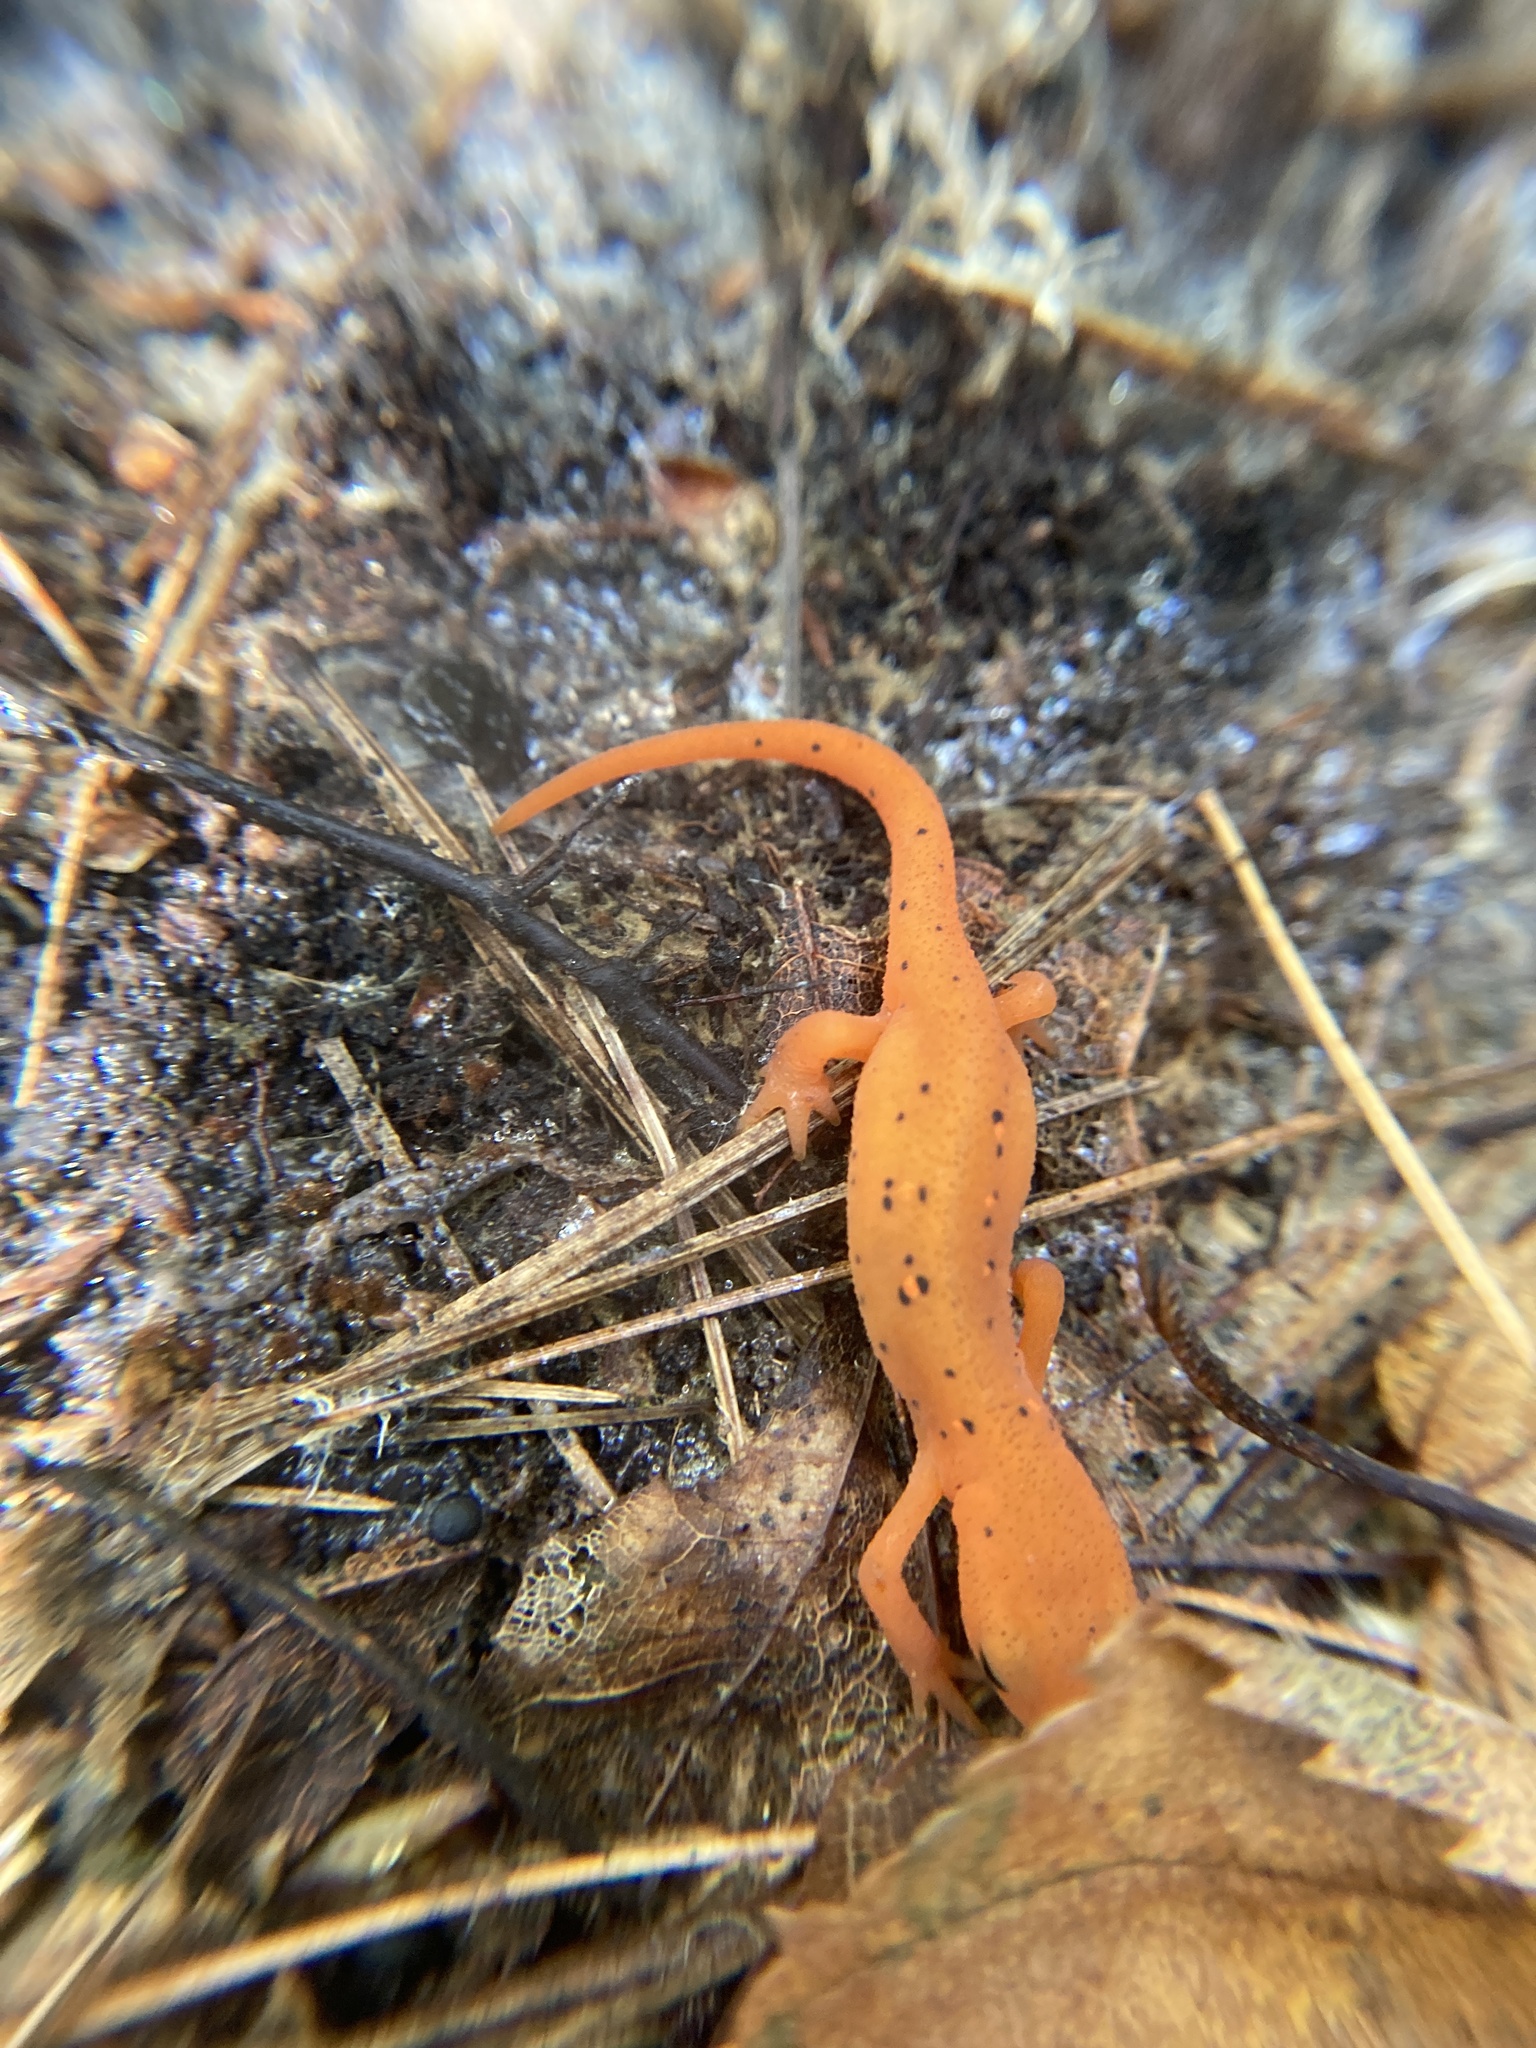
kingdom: Animalia
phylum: Chordata
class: Amphibia
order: Caudata
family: Salamandridae
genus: Notophthalmus
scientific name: Notophthalmus viridescens
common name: Eastern newt
